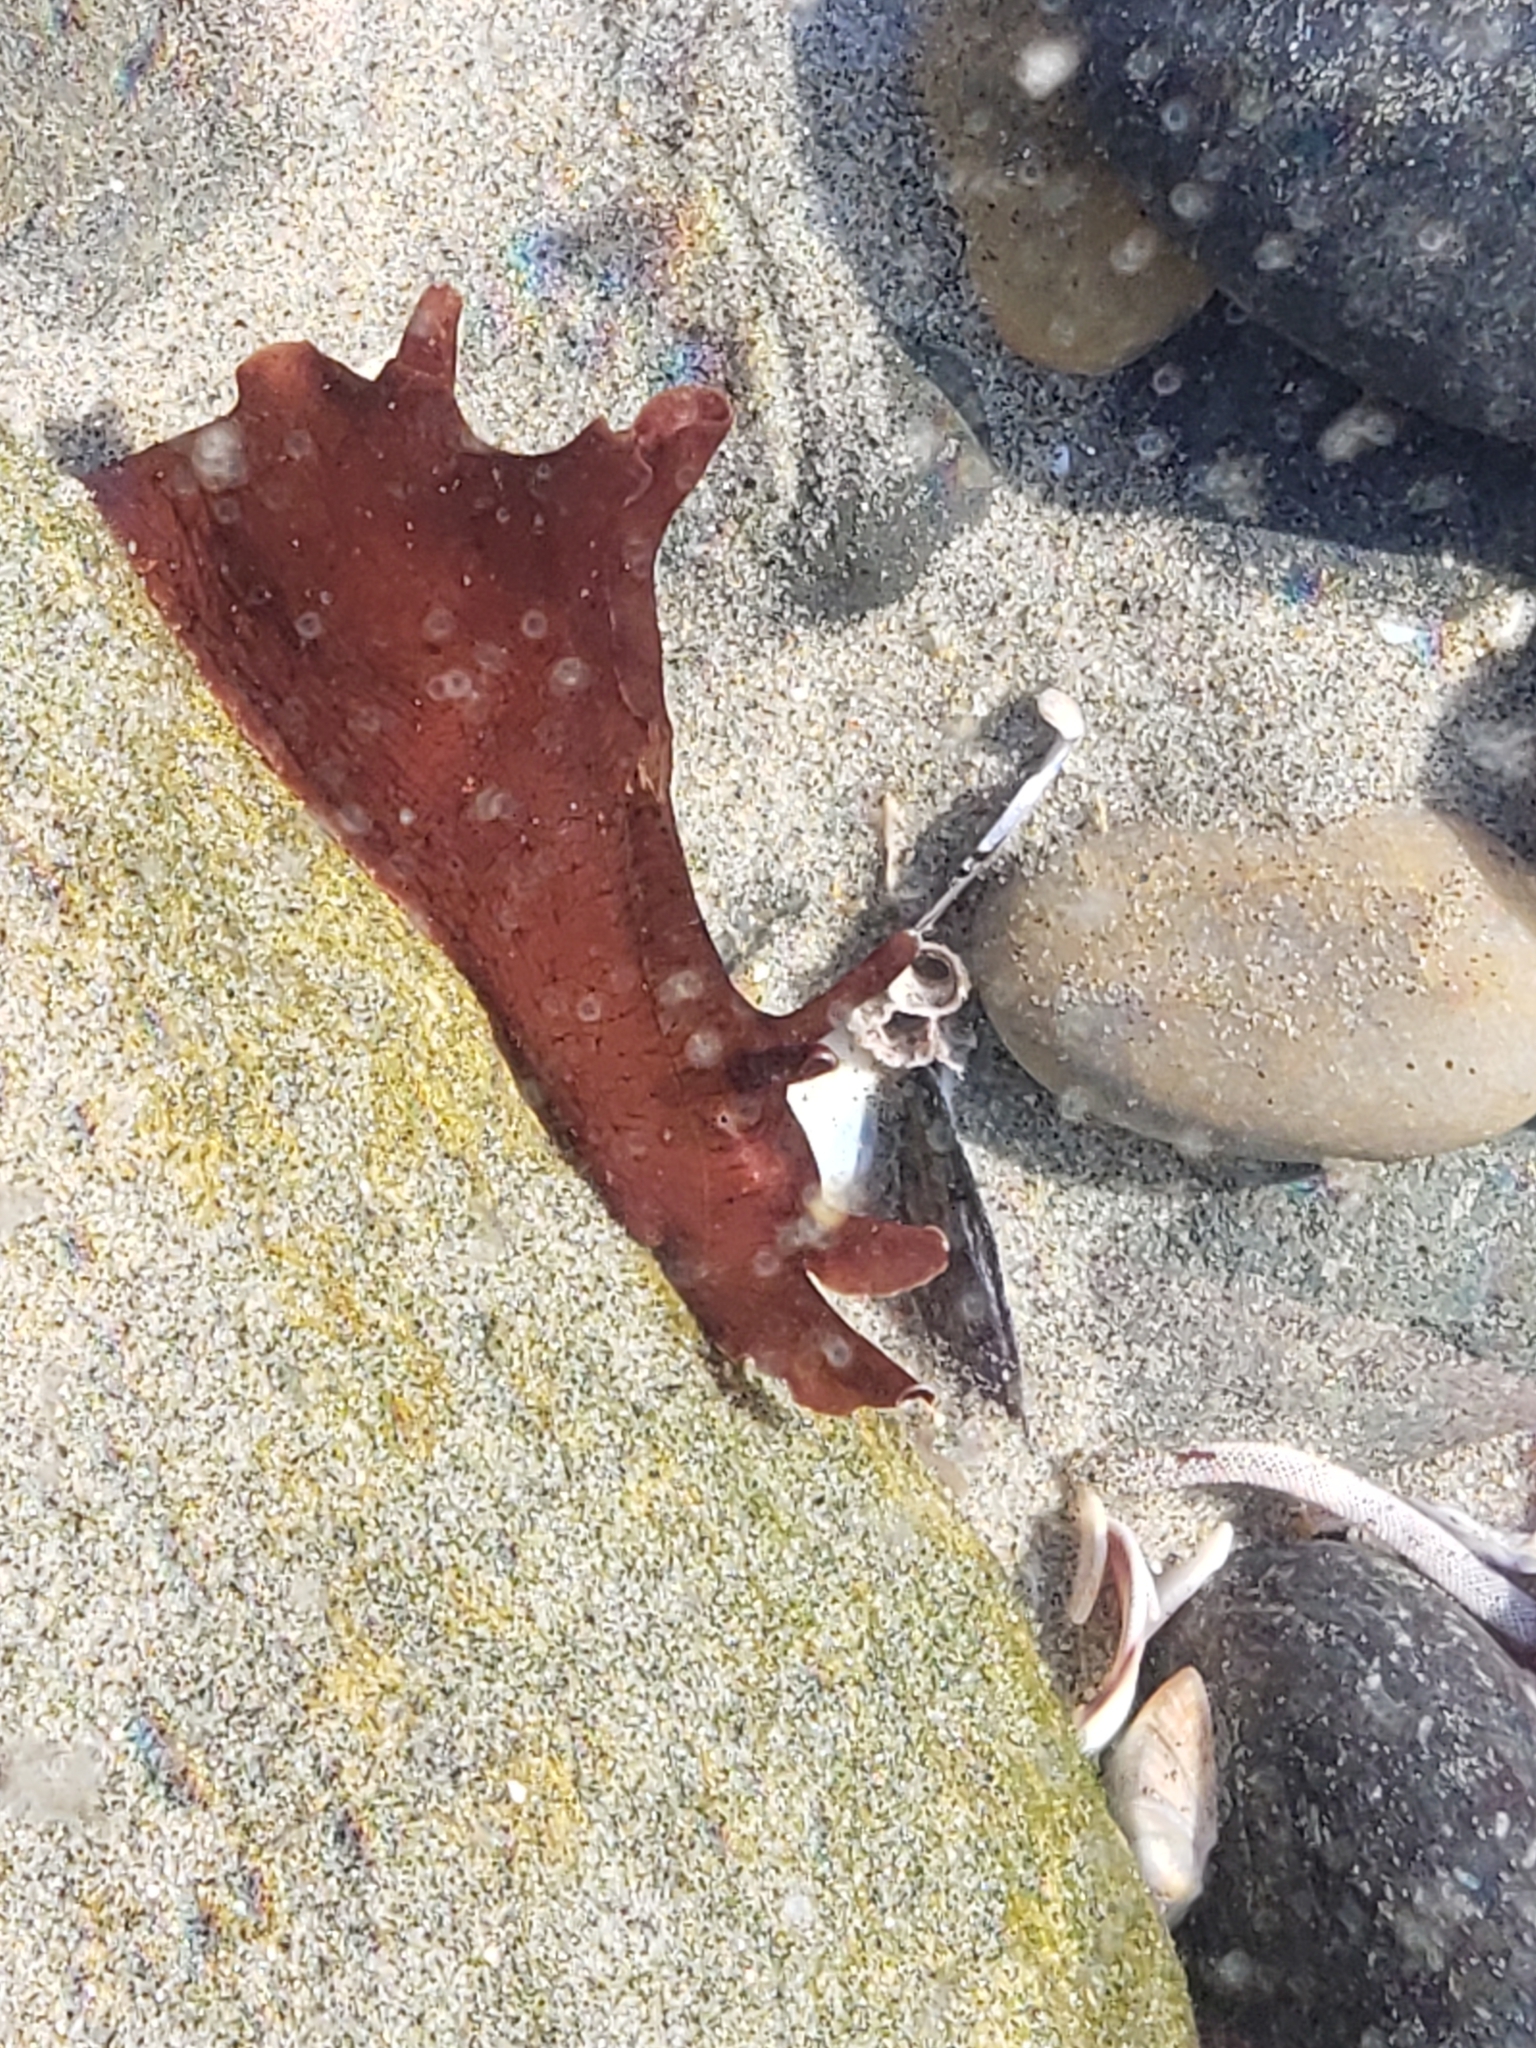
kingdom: Animalia
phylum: Mollusca
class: Gastropoda
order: Aplysiida
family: Aplysiidae
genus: Aplysia
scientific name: Aplysia californica
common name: California seahare
